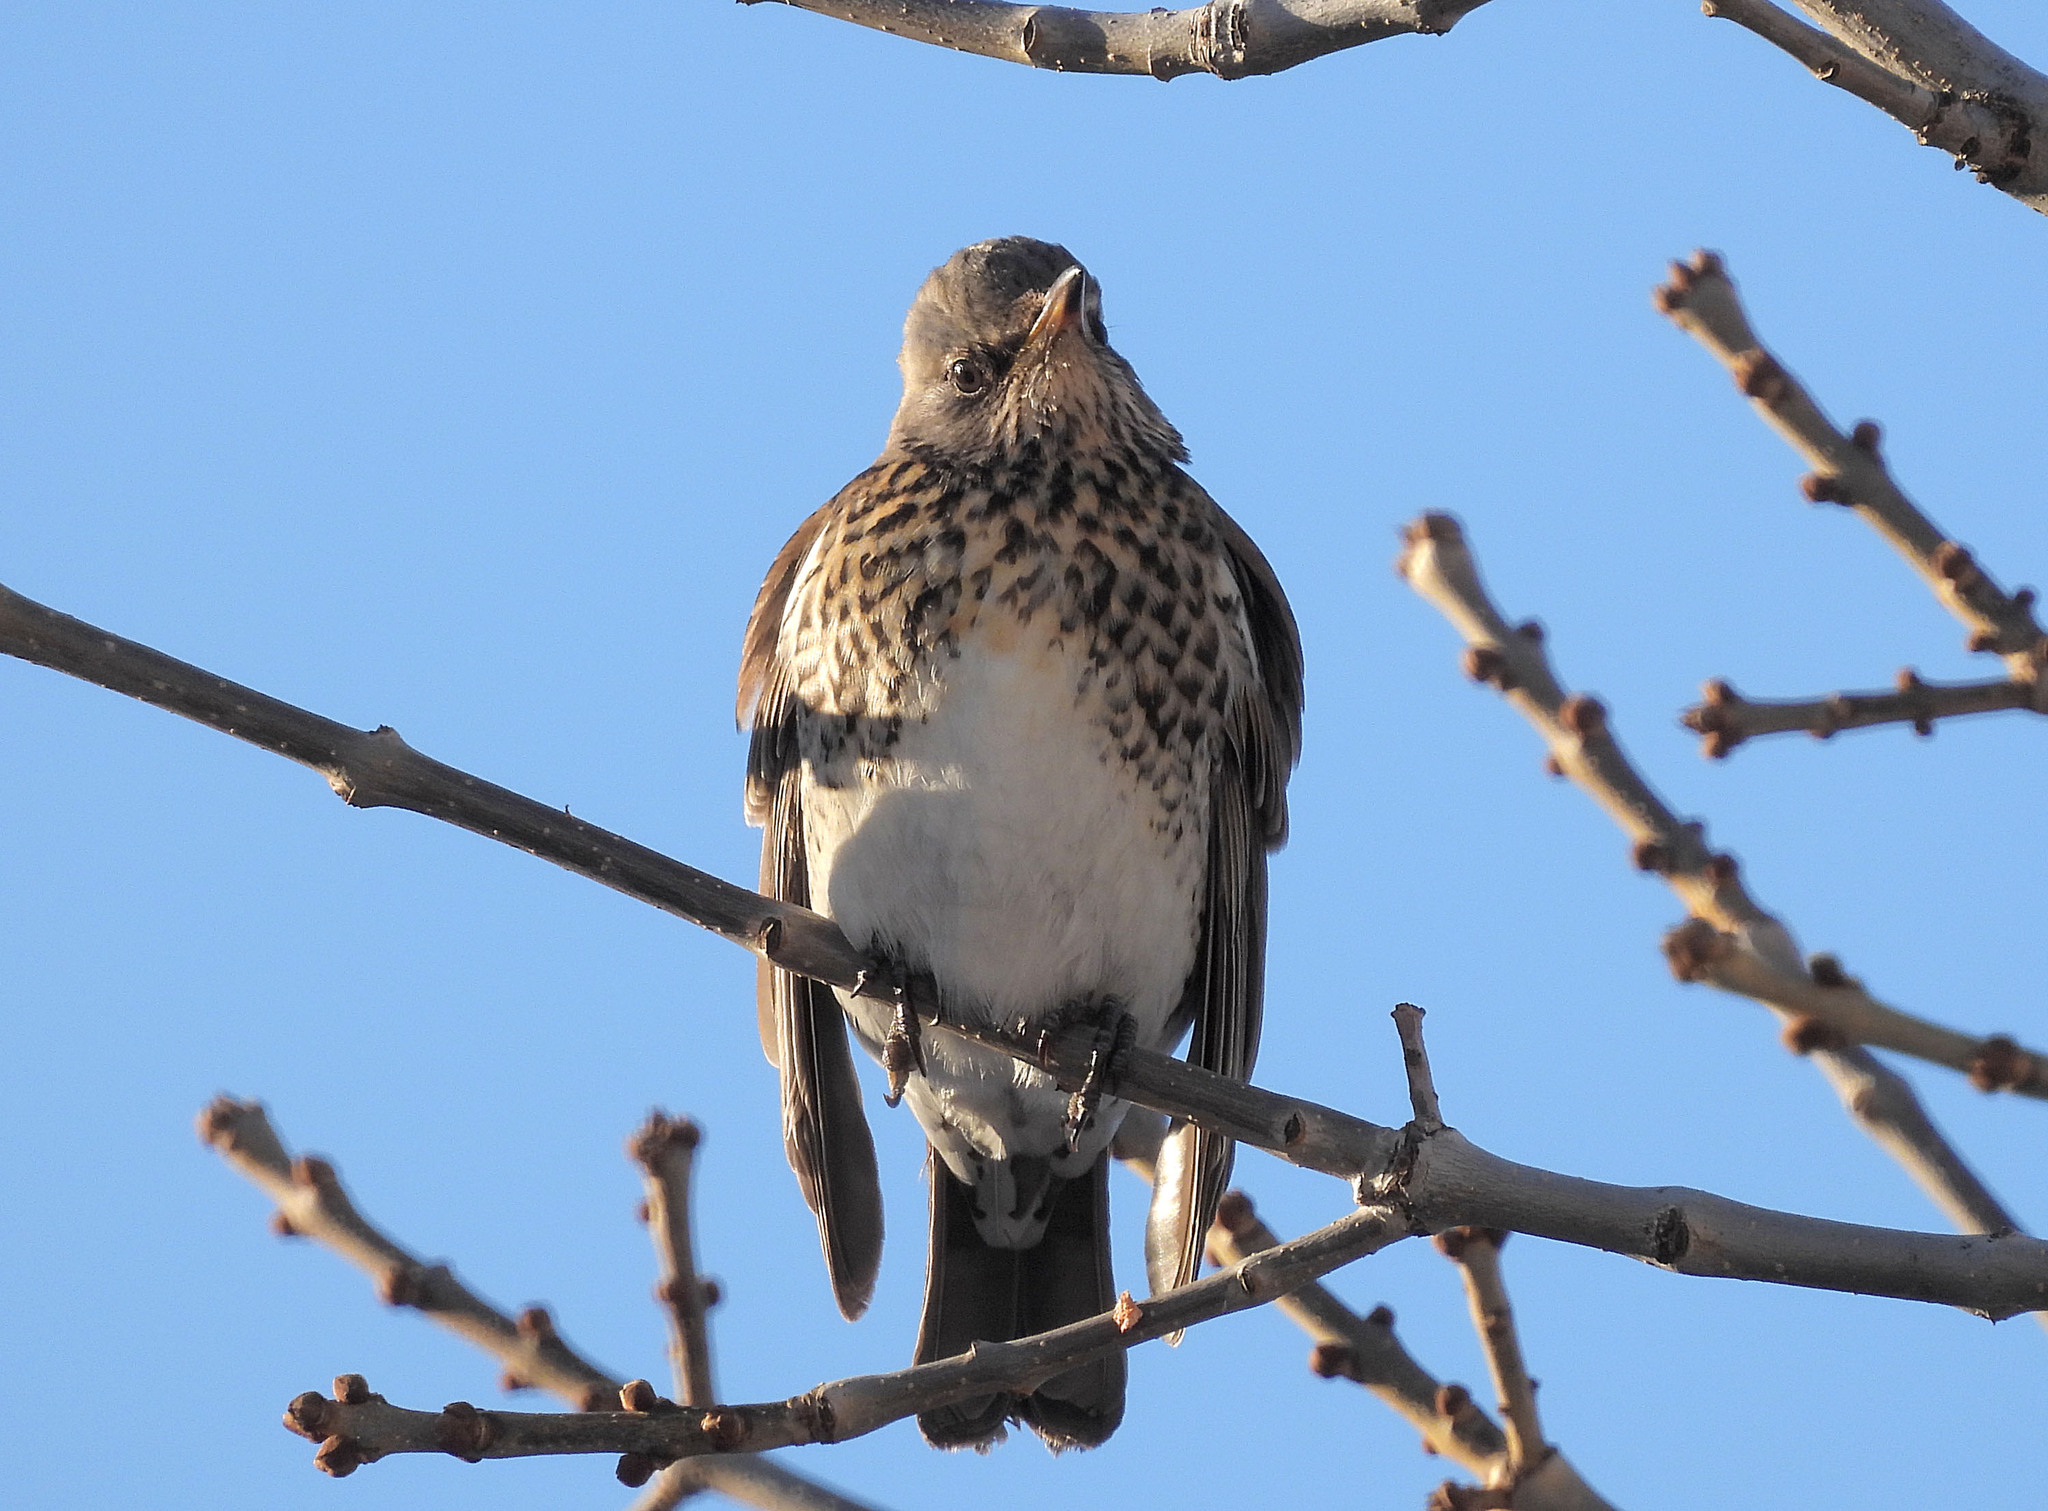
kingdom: Animalia
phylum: Chordata
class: Aves
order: Passeriformes
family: Turdidae
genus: Turdus
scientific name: Turdus pilaris
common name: Fieldfare
